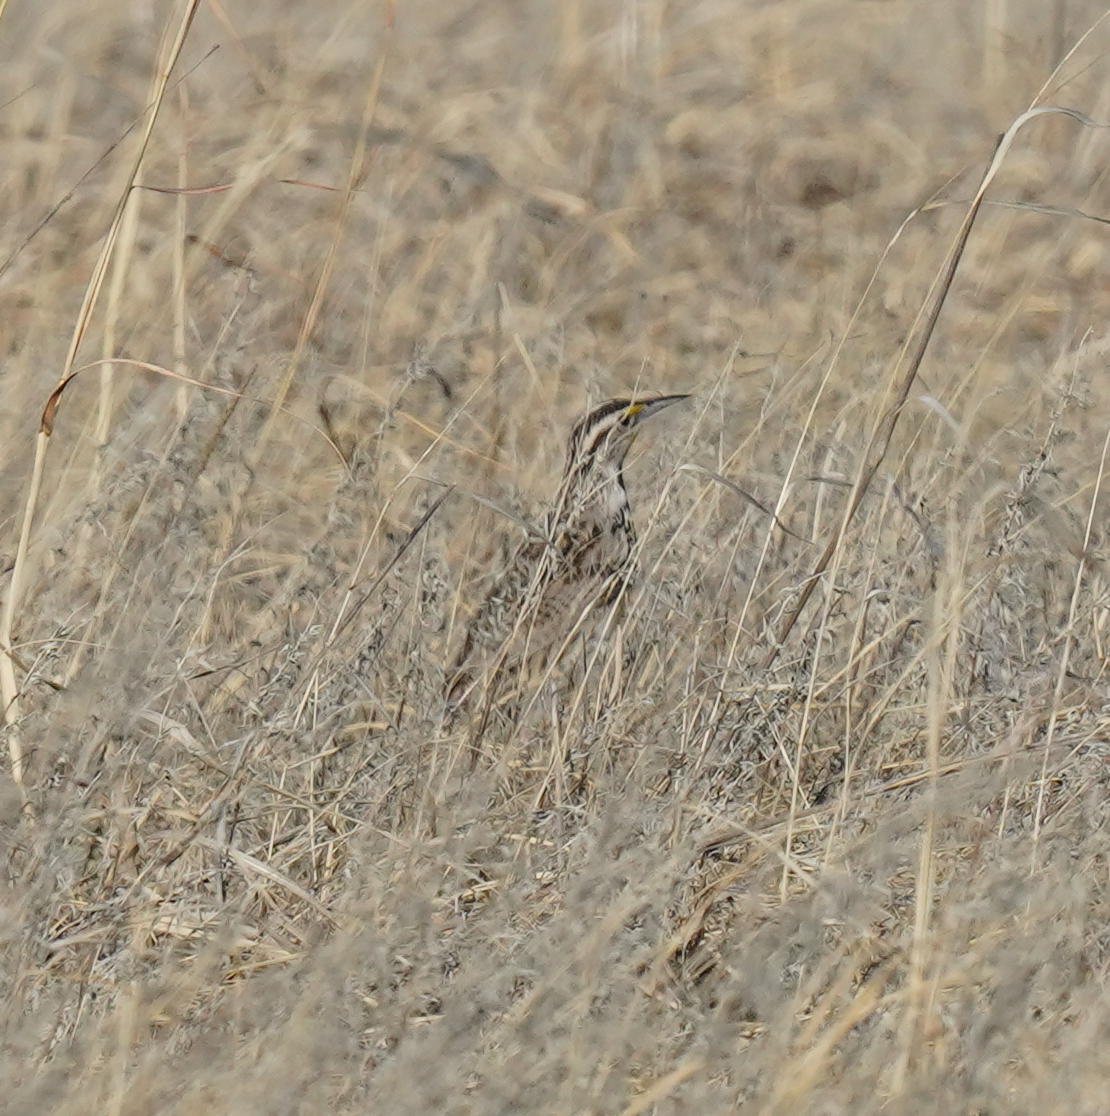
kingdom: Animalia
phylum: Chordata
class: Aves
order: Passeriformes
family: Icteridae
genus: Sturnella
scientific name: Sturnella neglecta
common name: Western meadowlark
